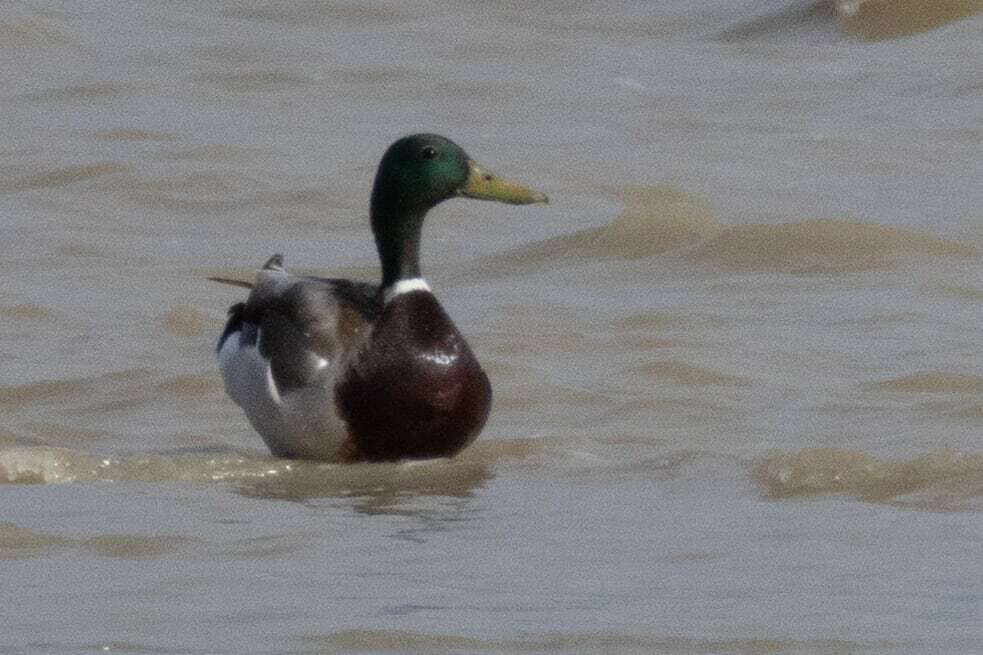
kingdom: Animalia
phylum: Chordata
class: Aves
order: Anseriformes
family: Anatidae
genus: Anas
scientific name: Anas platyrhynchos
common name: Mallard
